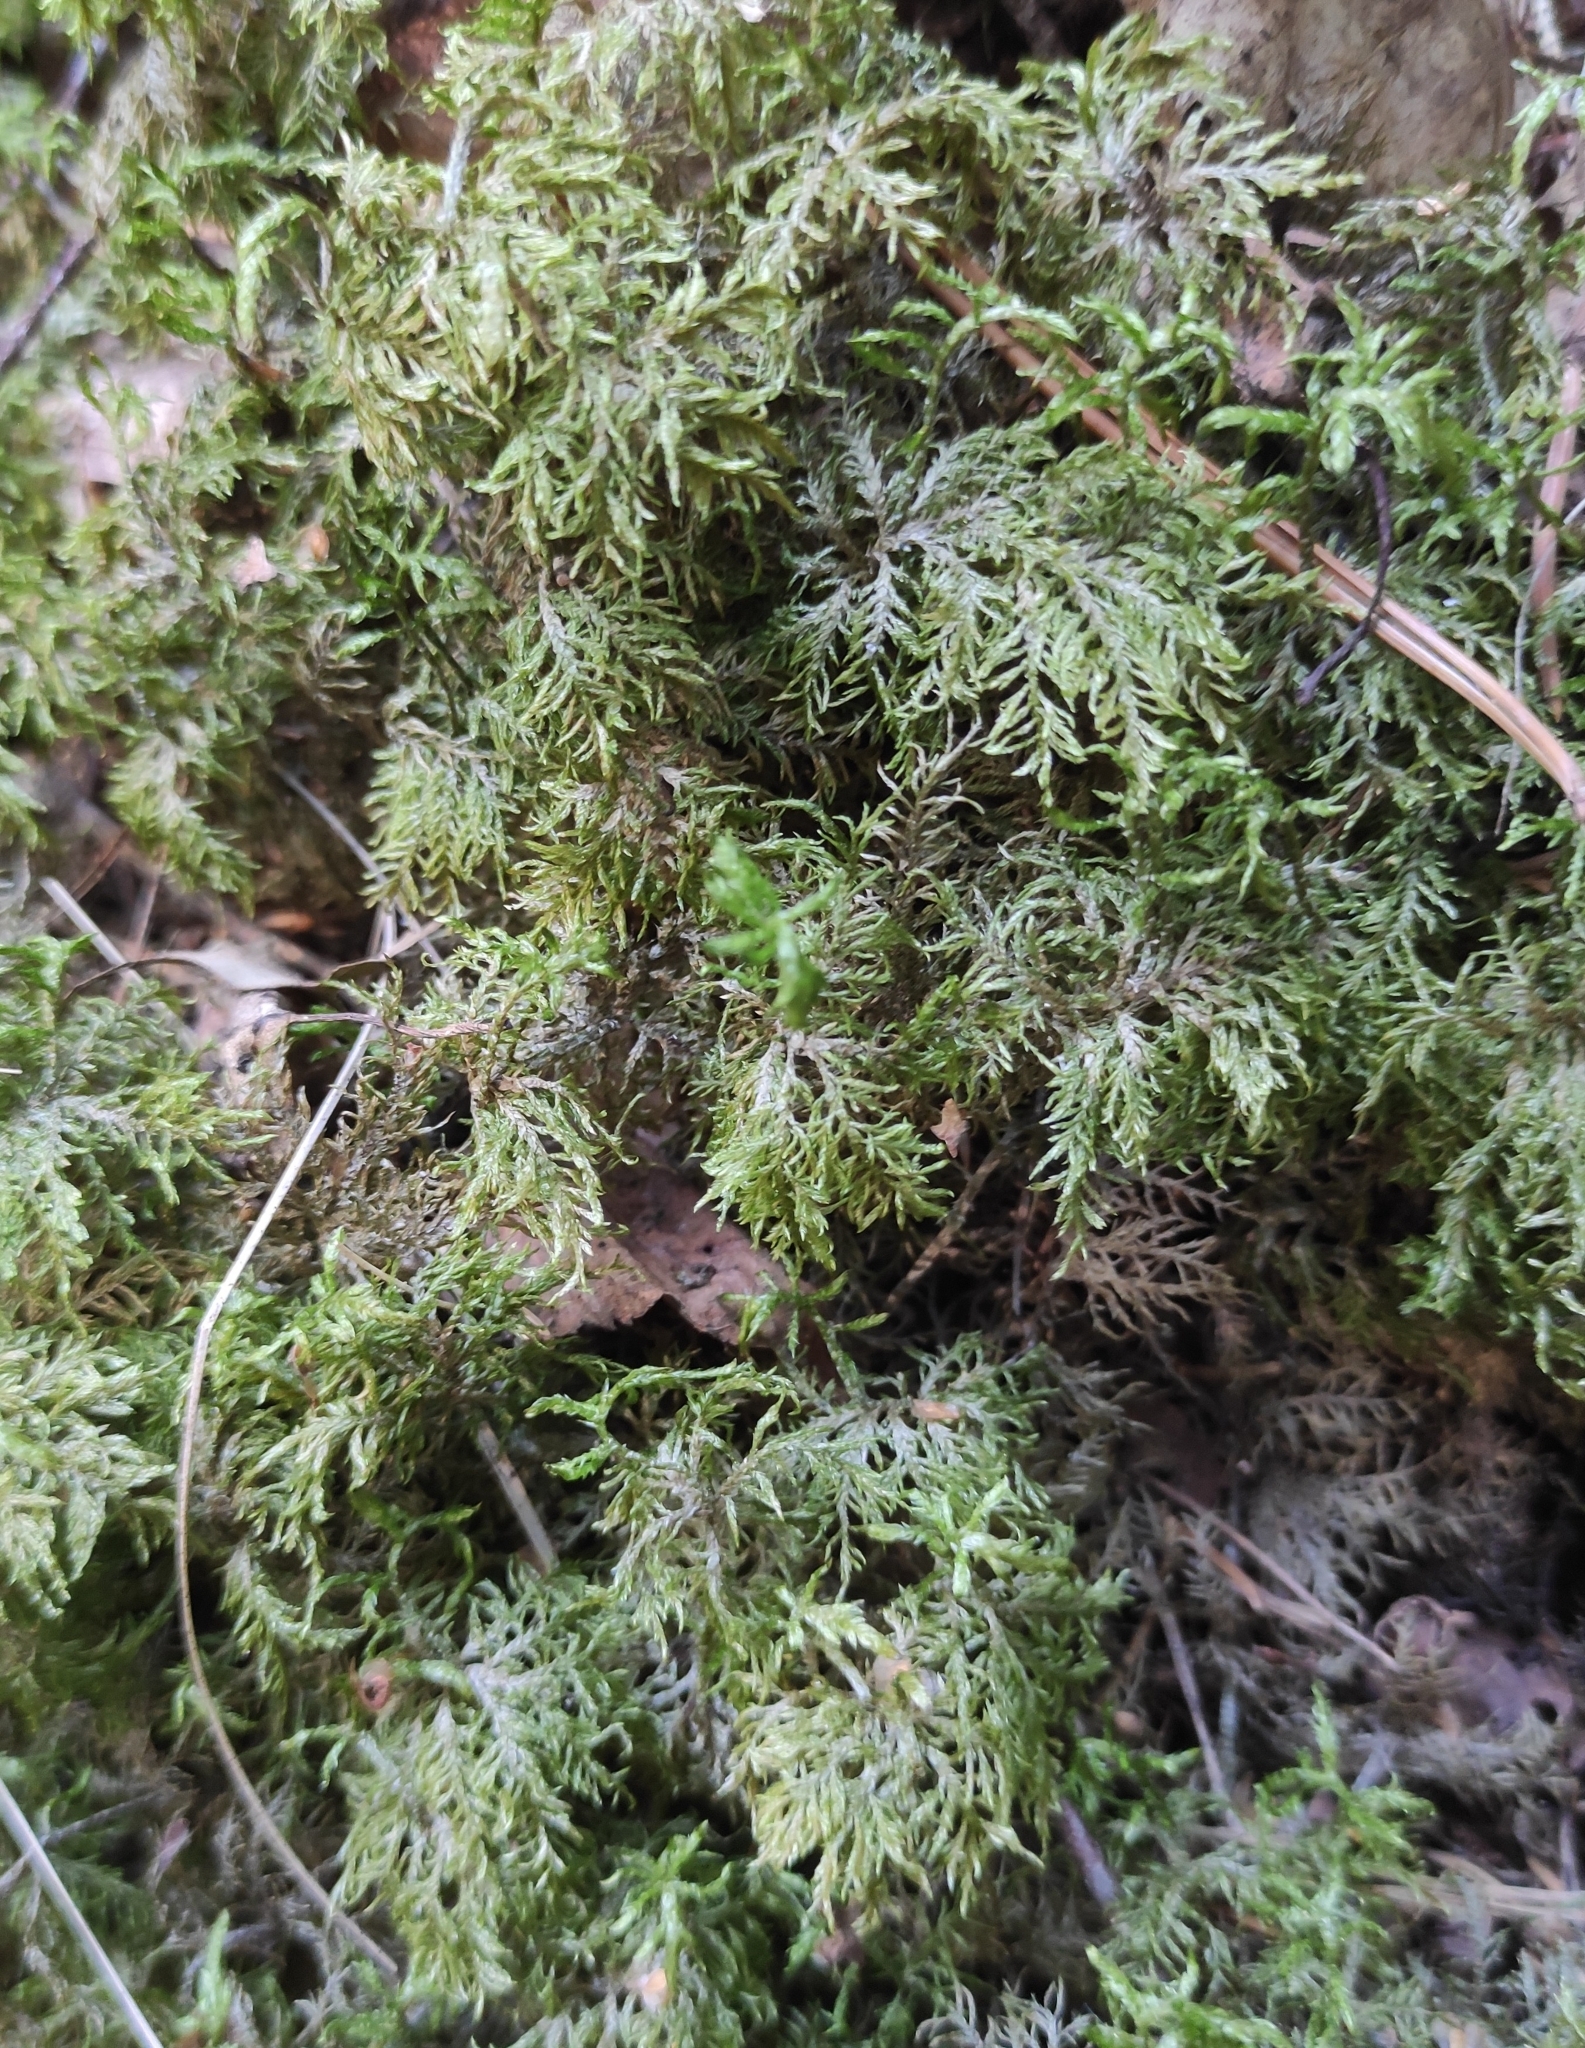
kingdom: Plantae
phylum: Bryophyta
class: Bryopsida
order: Hypnales
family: Hylocomiaceae
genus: Hylocomium
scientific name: Hylocomium splendens
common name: Stairstep moss
